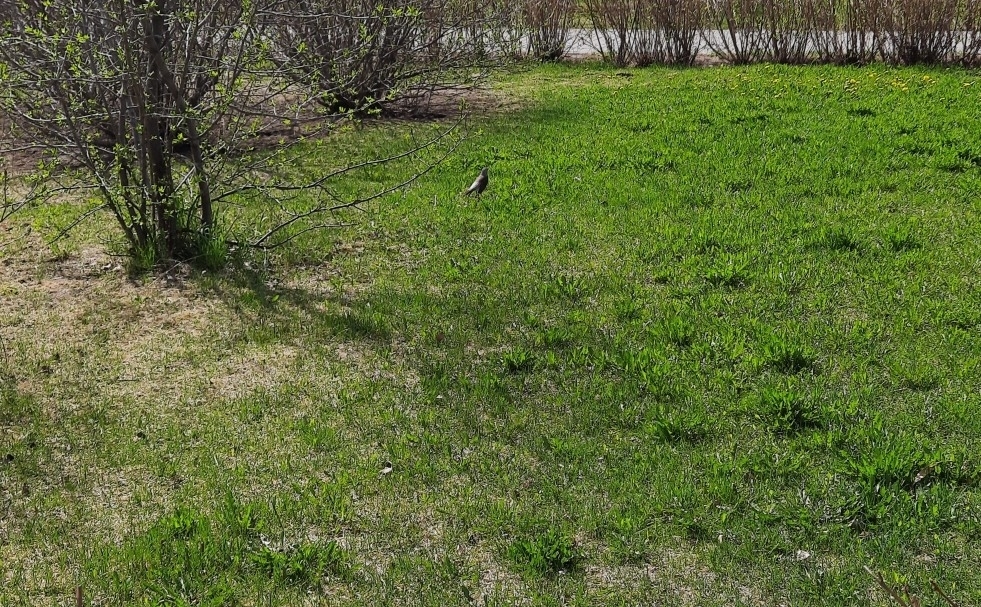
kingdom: Animalia
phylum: Chordata
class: Aves
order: Passeriformes
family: Turdidae
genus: Turdus
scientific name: Turdus pilaris
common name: Fieldfare
